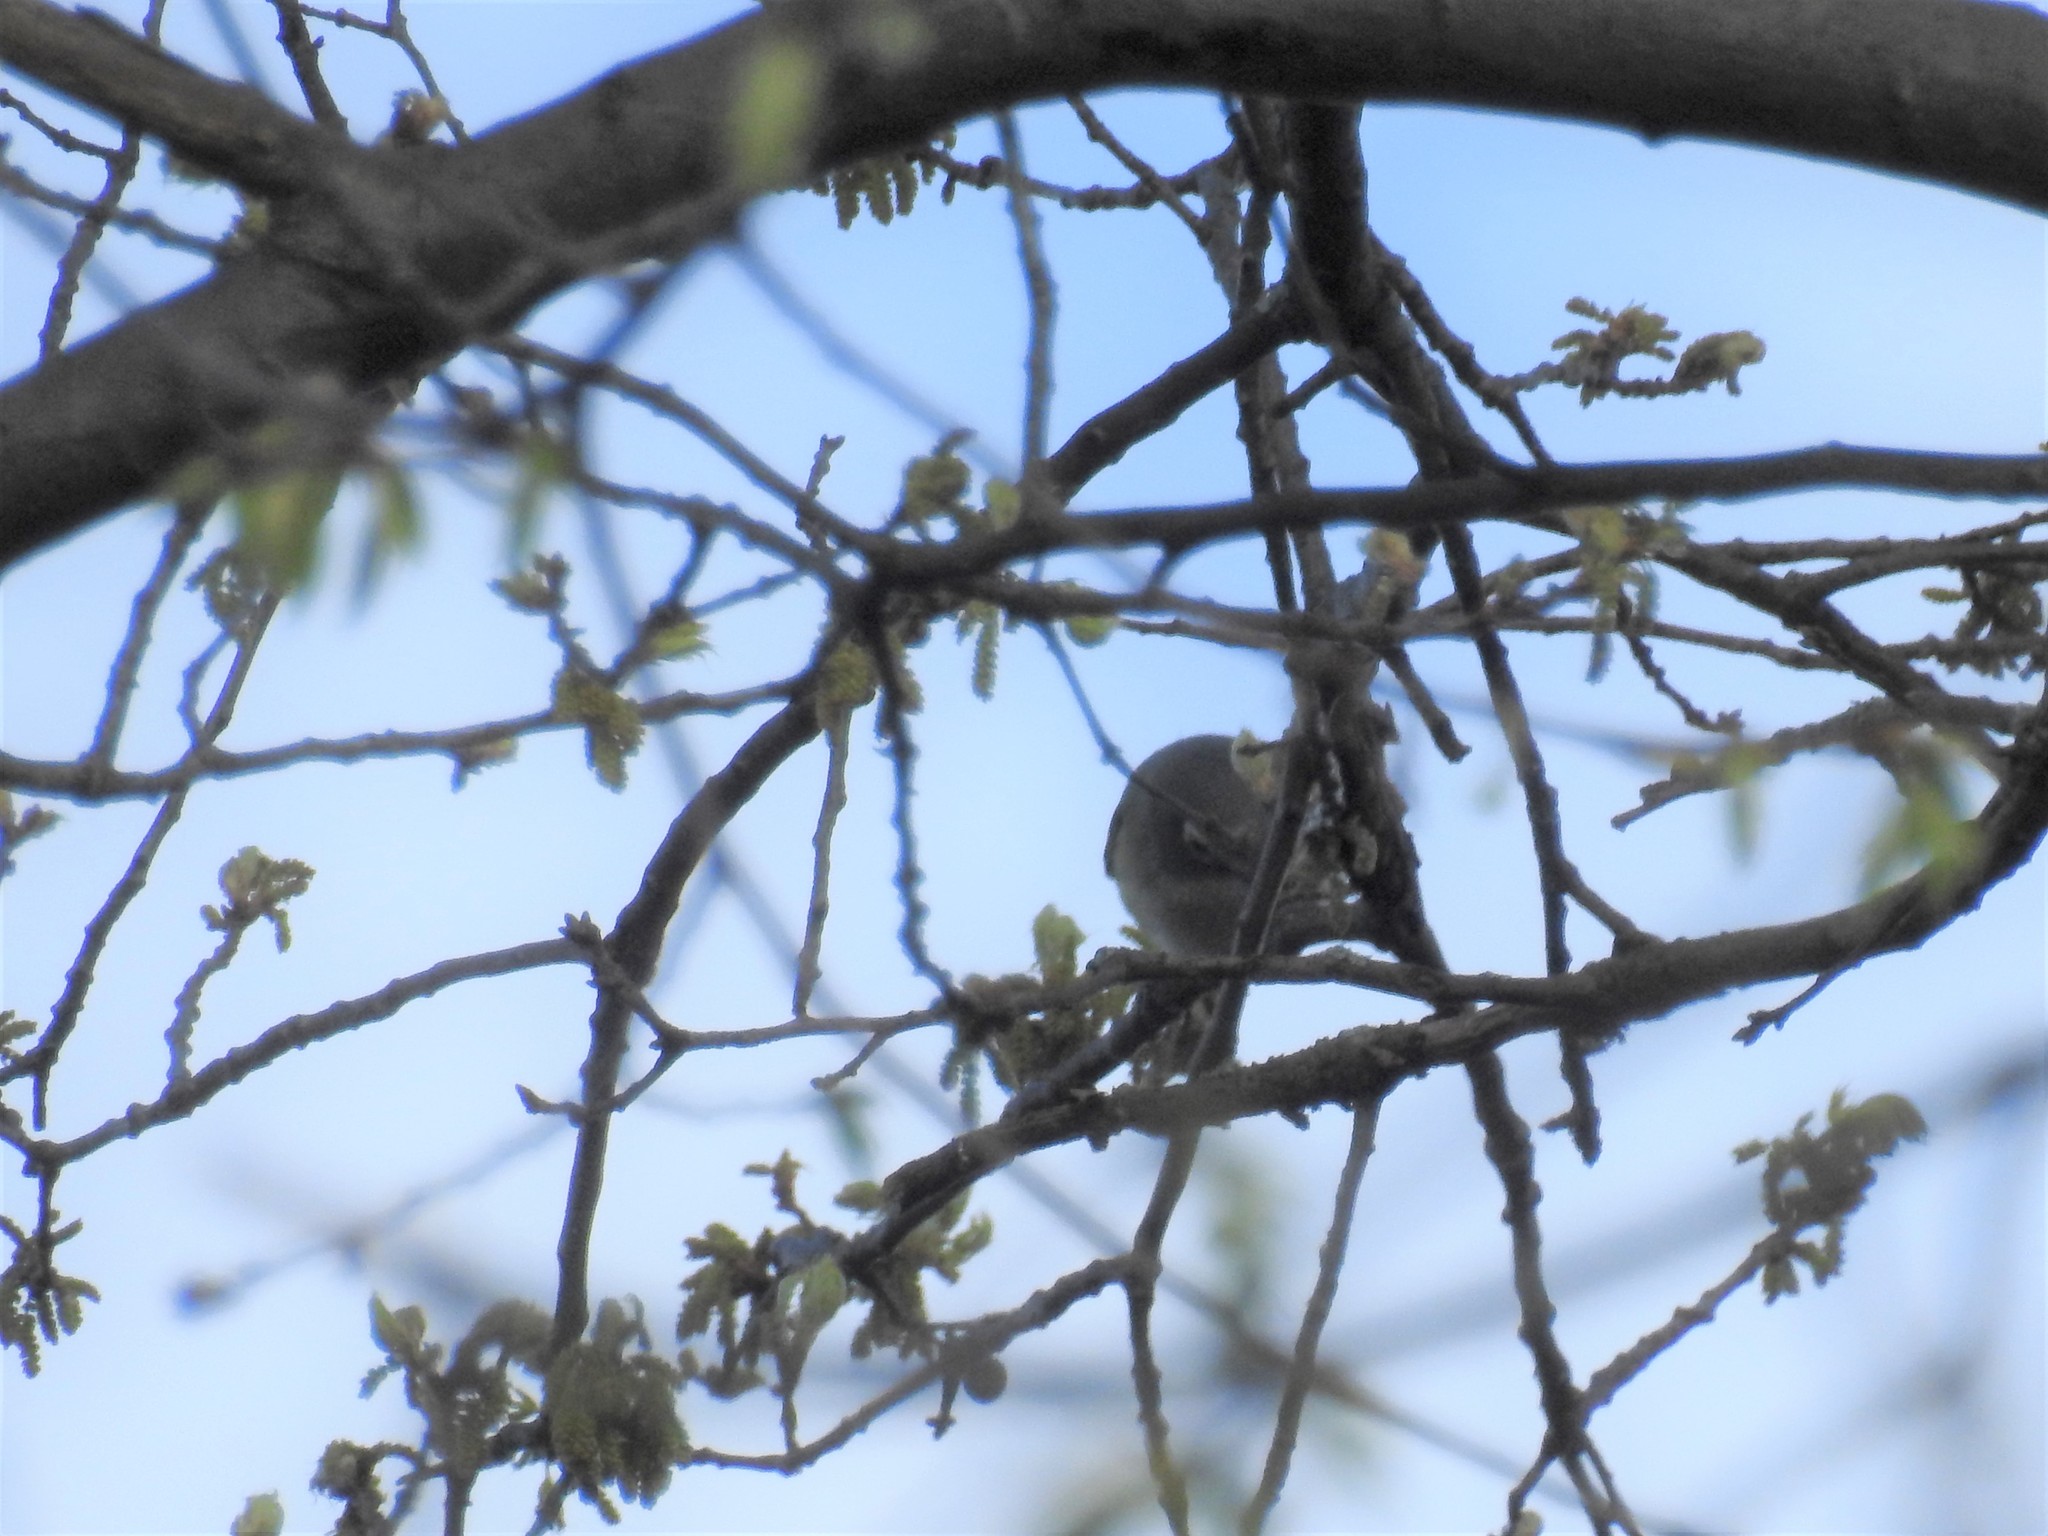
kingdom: Animalia
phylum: Chordata
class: Aves
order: Passeriformes
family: Vireonidae
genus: Vireo
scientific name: Vireo solitarius
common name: Blue-headed vireo
